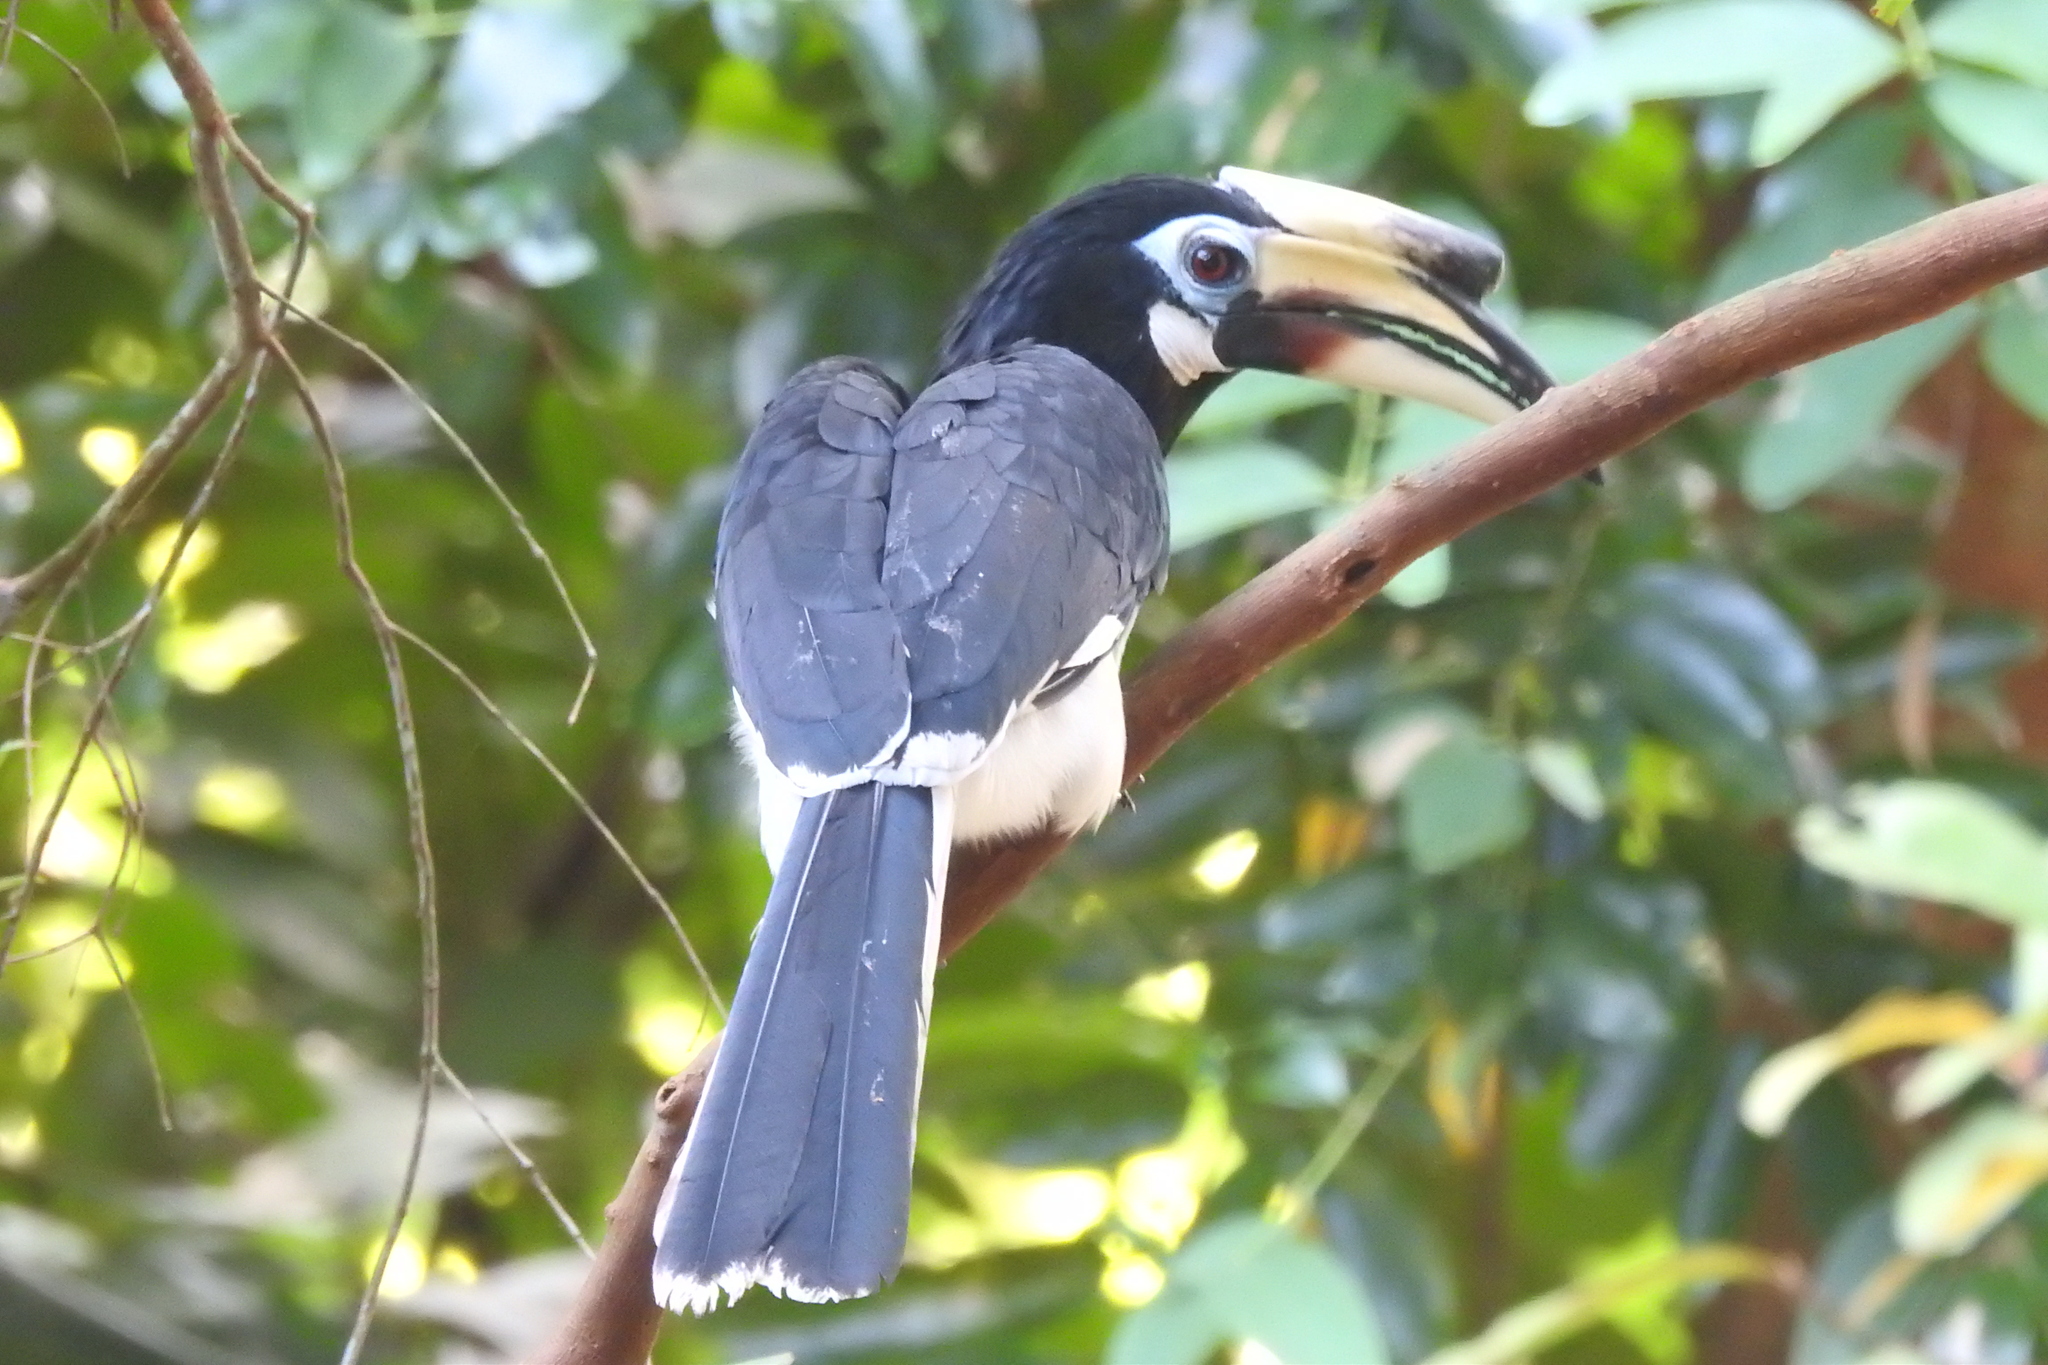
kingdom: Animalia
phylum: Chordata
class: Aves
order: Bucerotiformes
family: Bucerotidae
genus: Anthracoceros
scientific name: Anthracoceros albirostris
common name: Oriental pied-hornbill
